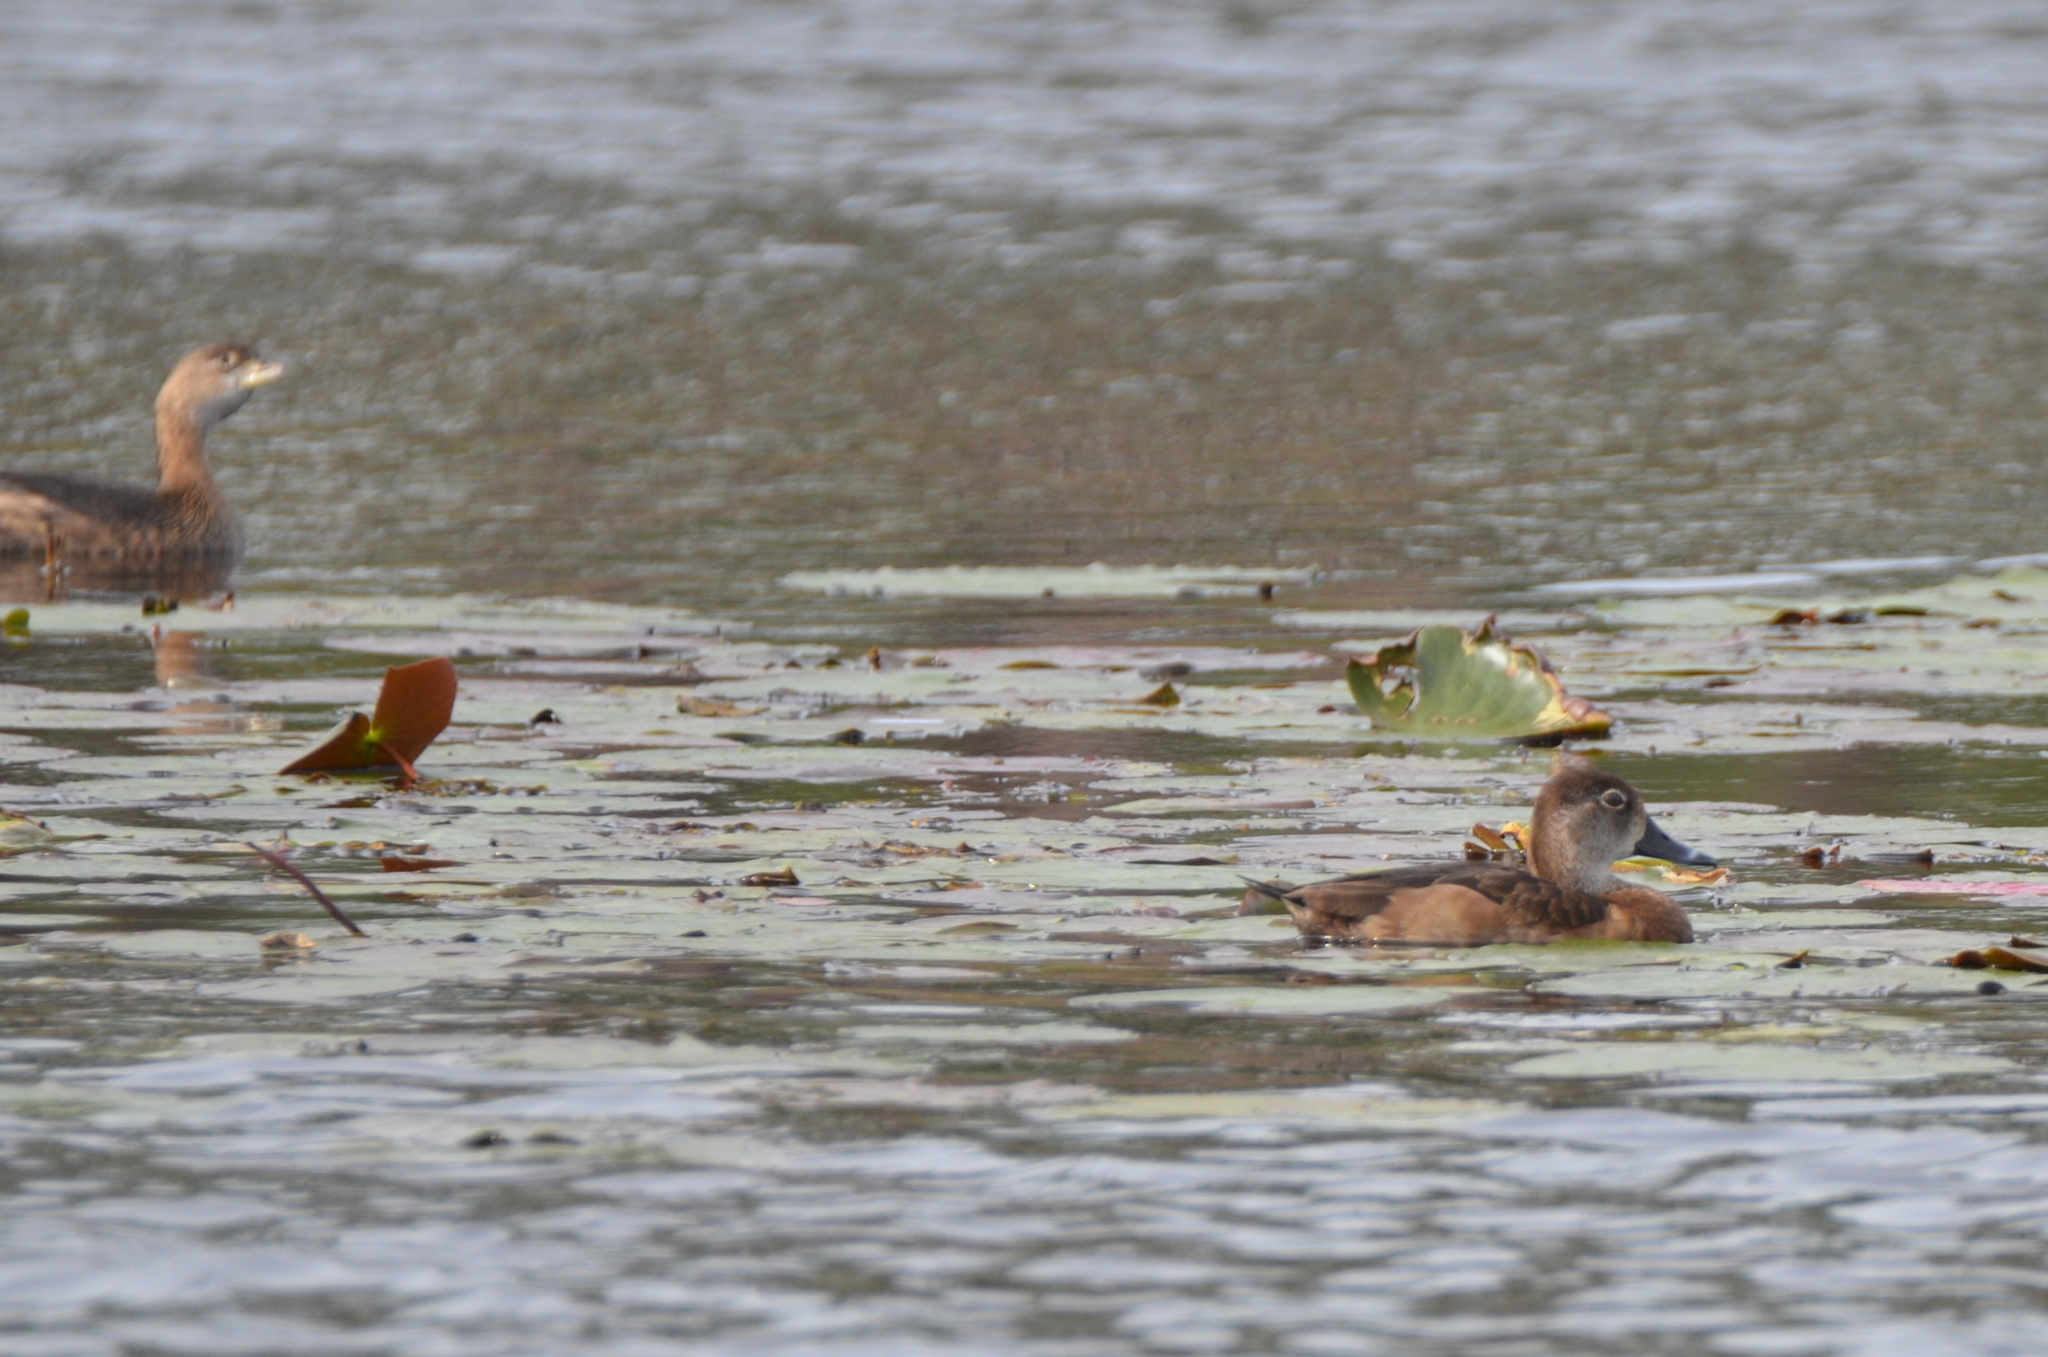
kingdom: Animalia
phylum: Chordata
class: Aves
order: Anseriformes
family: Anatidae
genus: Aythya
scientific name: Aythya collaris
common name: Ring-necked duck
